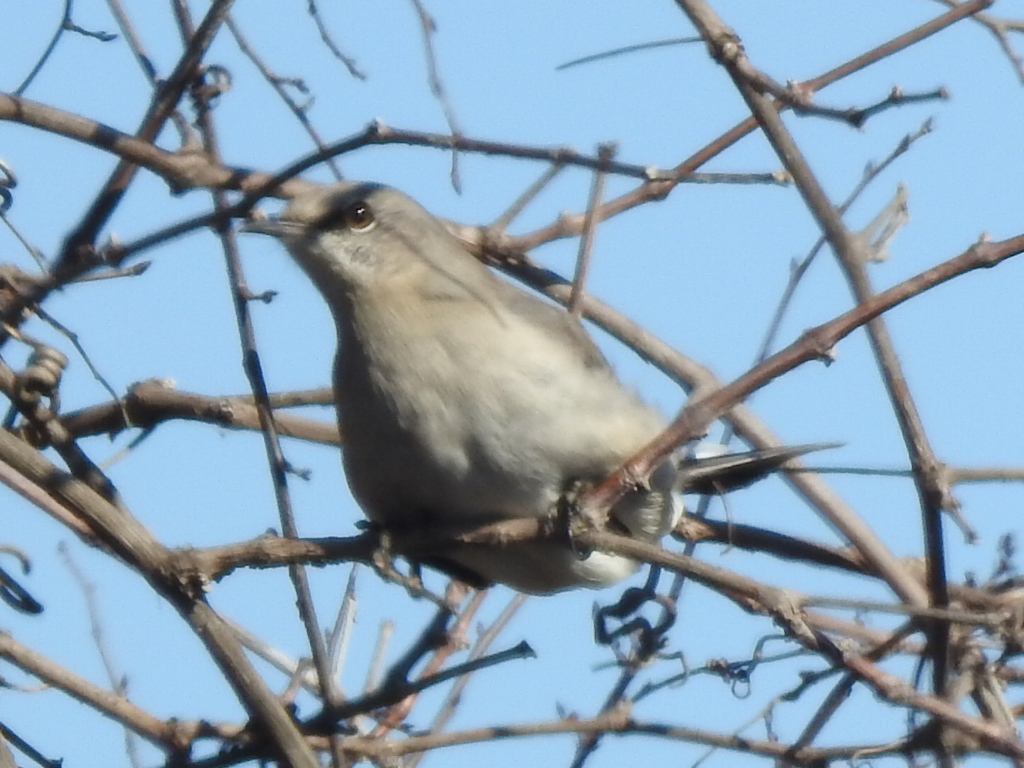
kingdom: Animalia
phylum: Chordata
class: Aves
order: Passeriformes
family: Mimidae
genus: Mimus
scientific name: Mimus polyglottos
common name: Northern mockingbird
